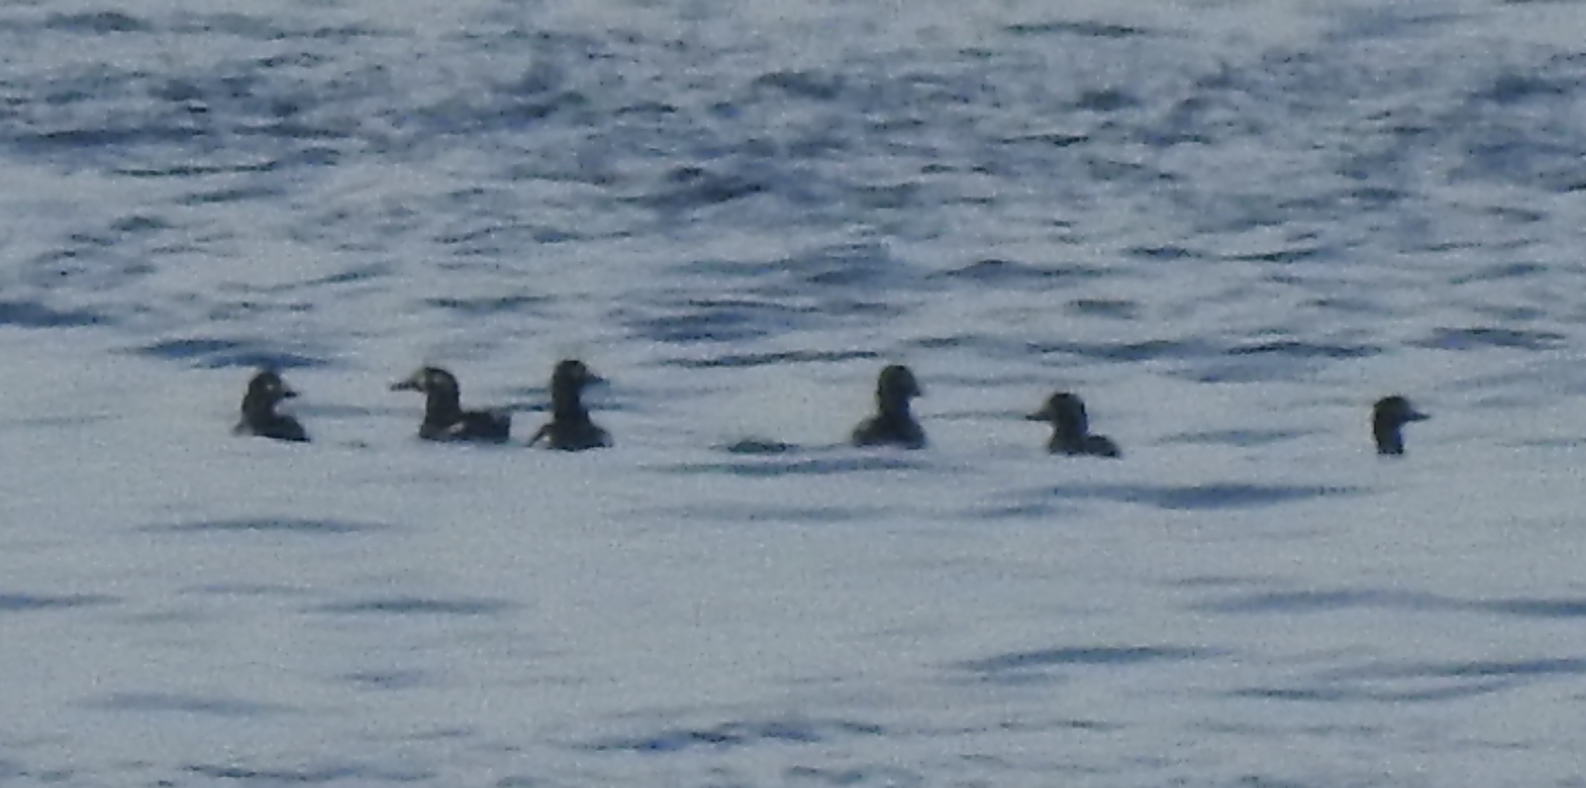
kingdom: Animalia
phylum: Chordata
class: Aves
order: Anseriformes
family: Anatidae
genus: Melanitta
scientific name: Melanitta fusca
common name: Velvet scoter
